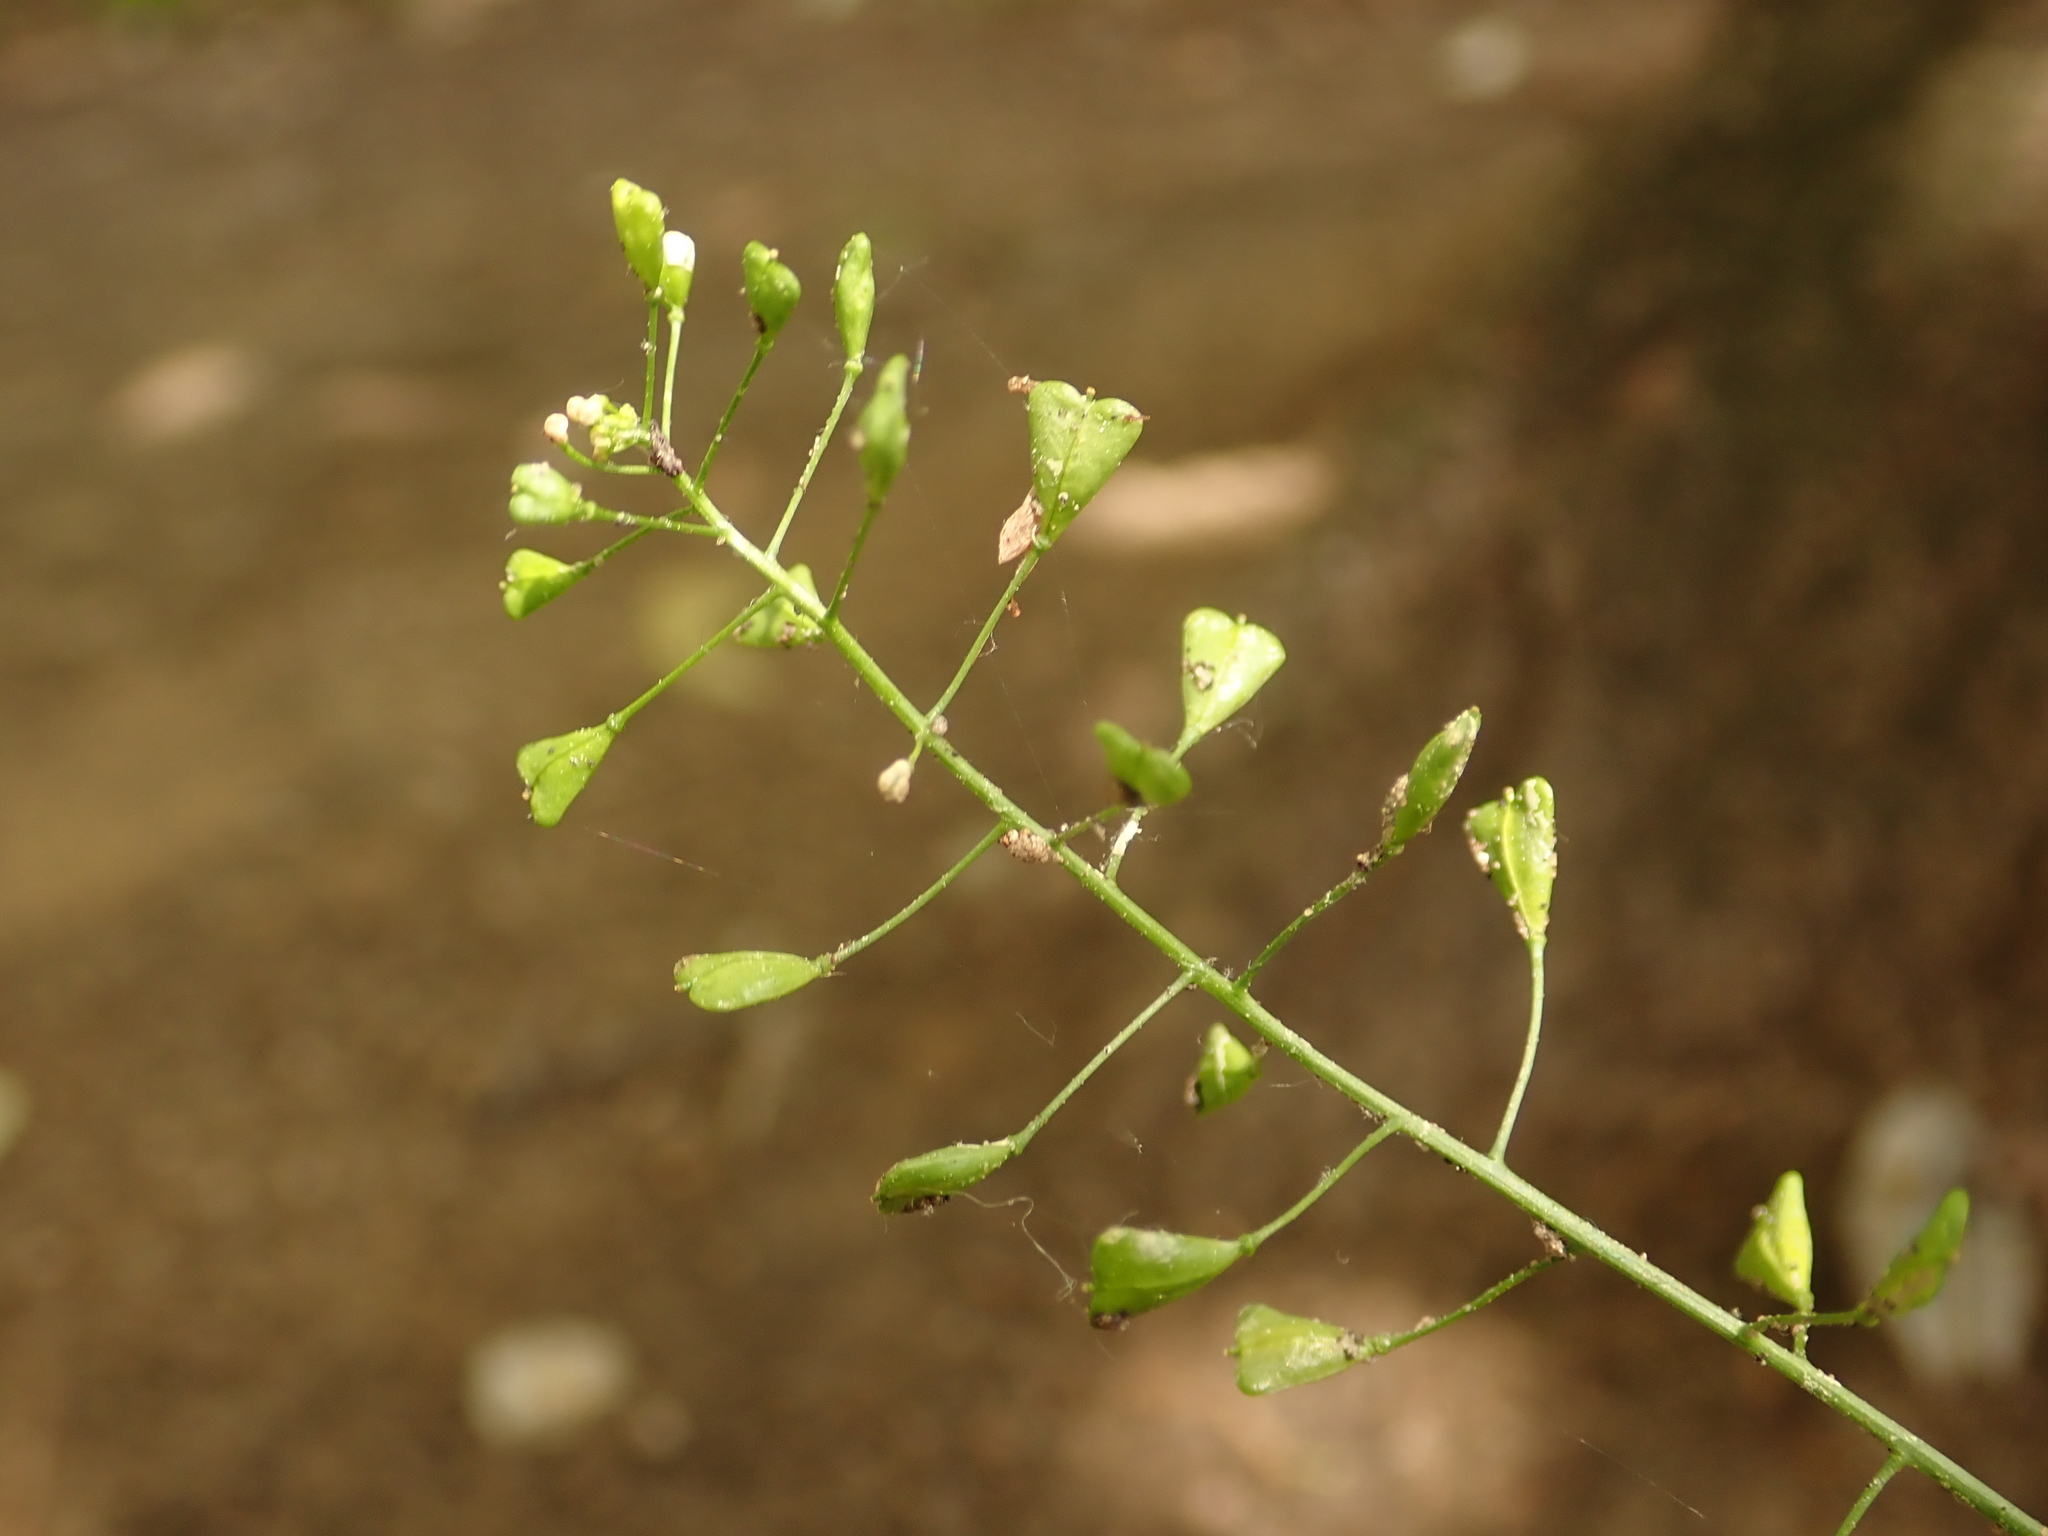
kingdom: Plantae
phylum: Tracheophyta
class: Magnoliopsida
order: Brassicales
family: Brassicaceae
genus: Capsella
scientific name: Capsella bursa-pastoris
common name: Shepherd's purse
